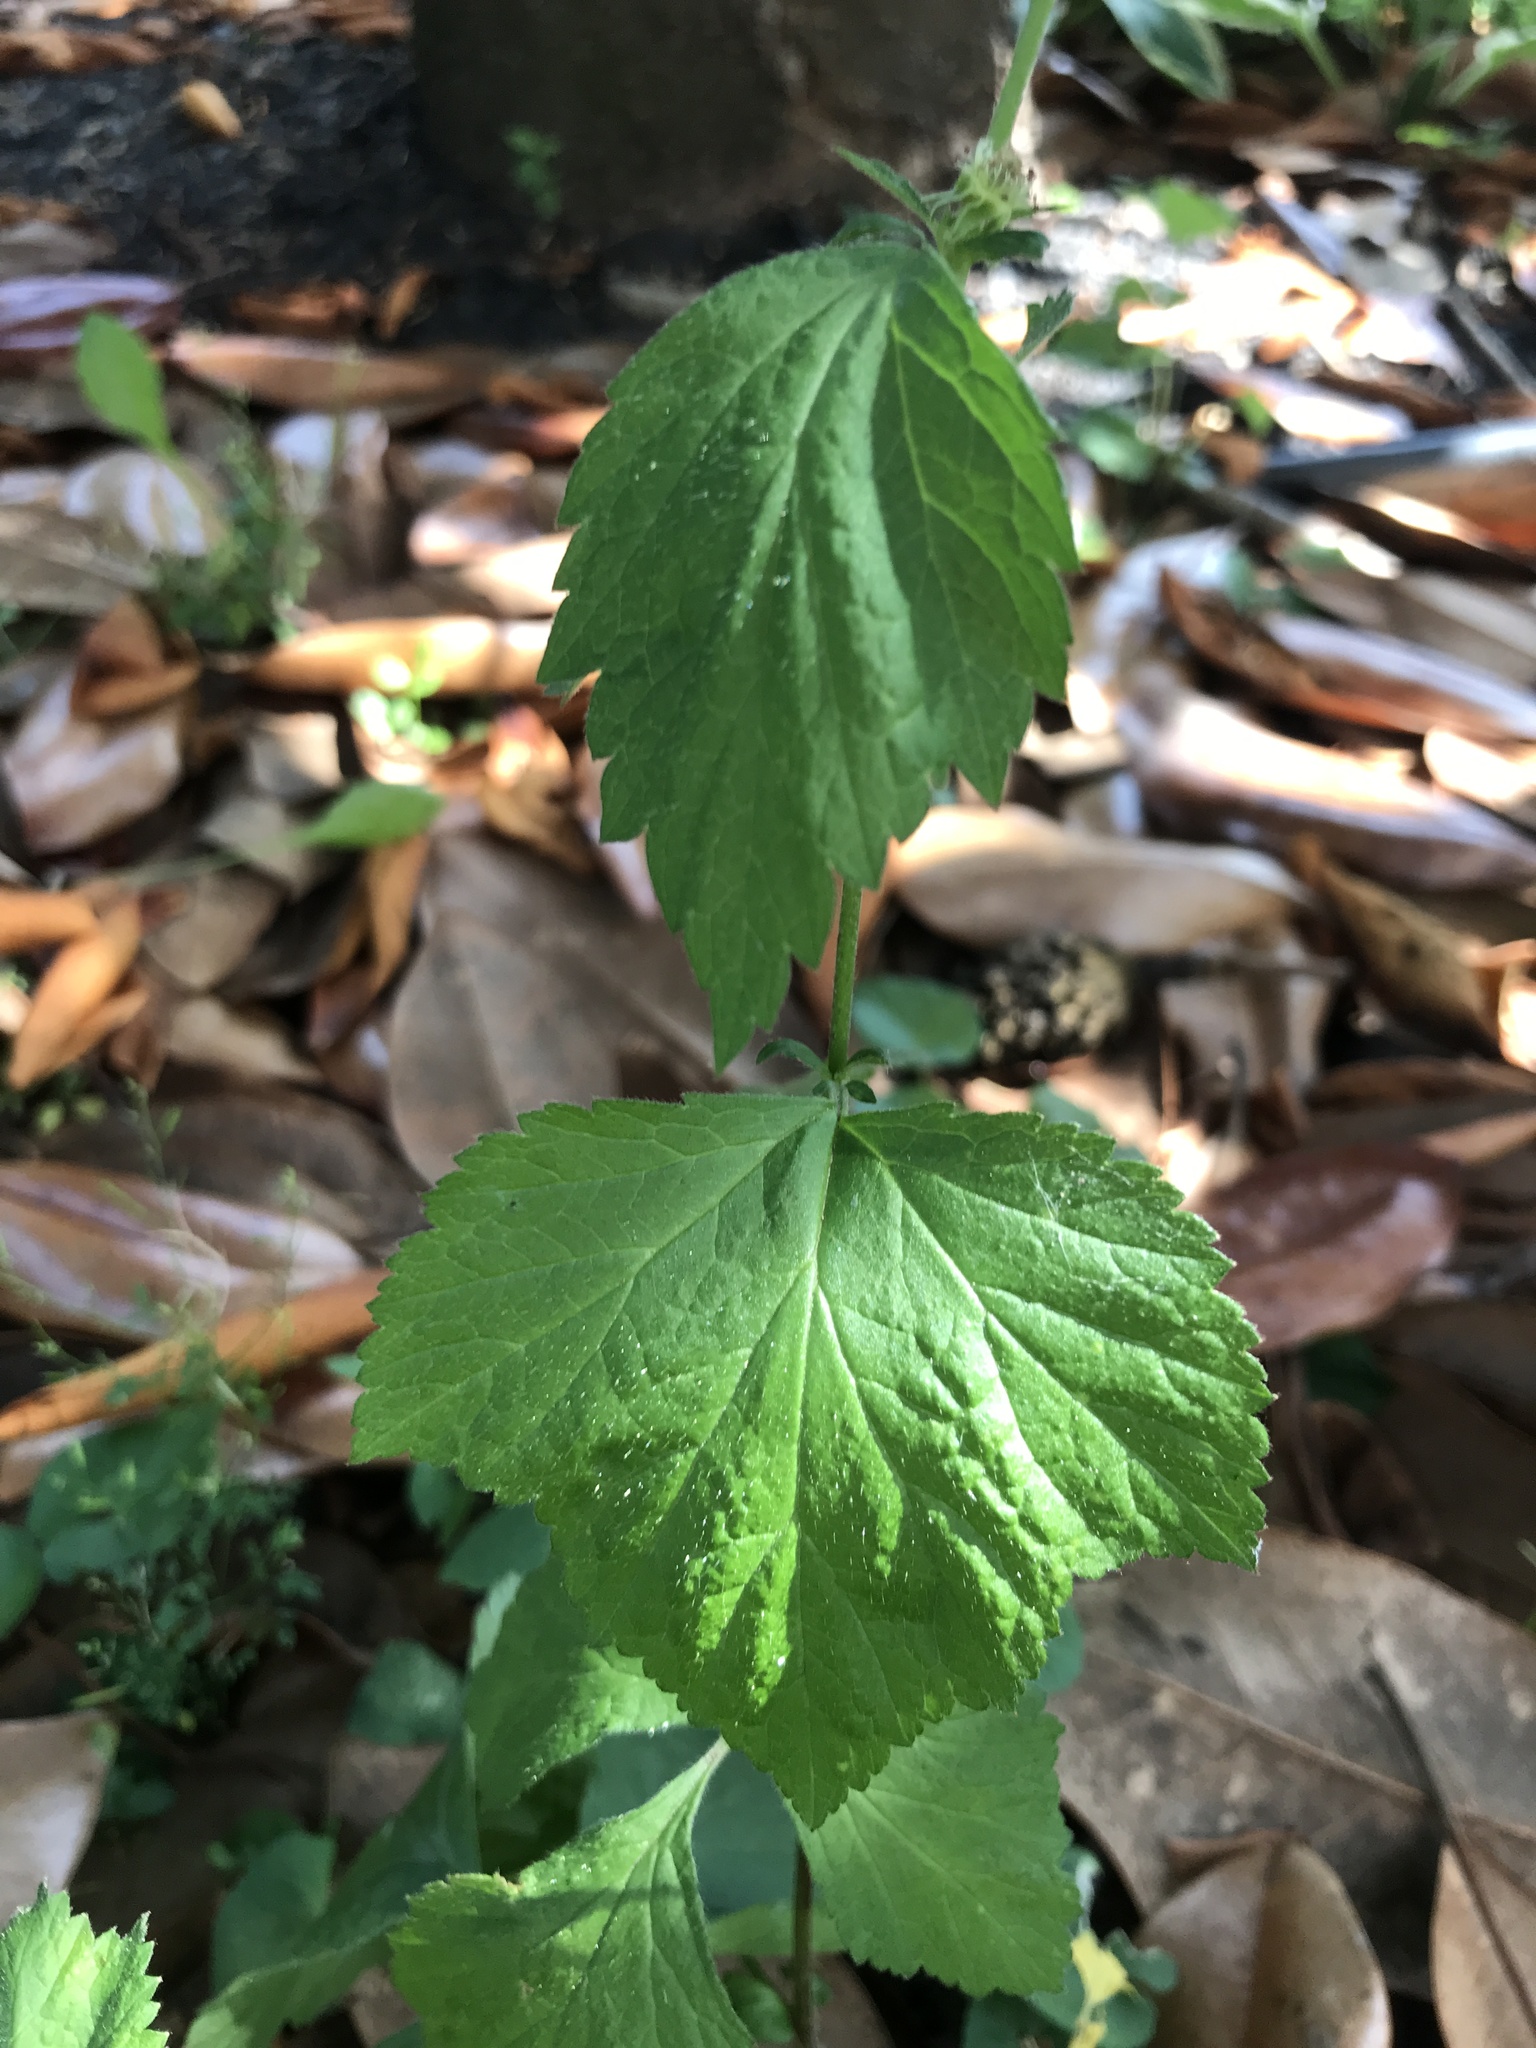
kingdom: Plantae
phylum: Tracheophyta
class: Magnoliopsida
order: Rosales
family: Rosaceae
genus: Geum
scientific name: Geum canadense
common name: White avens
